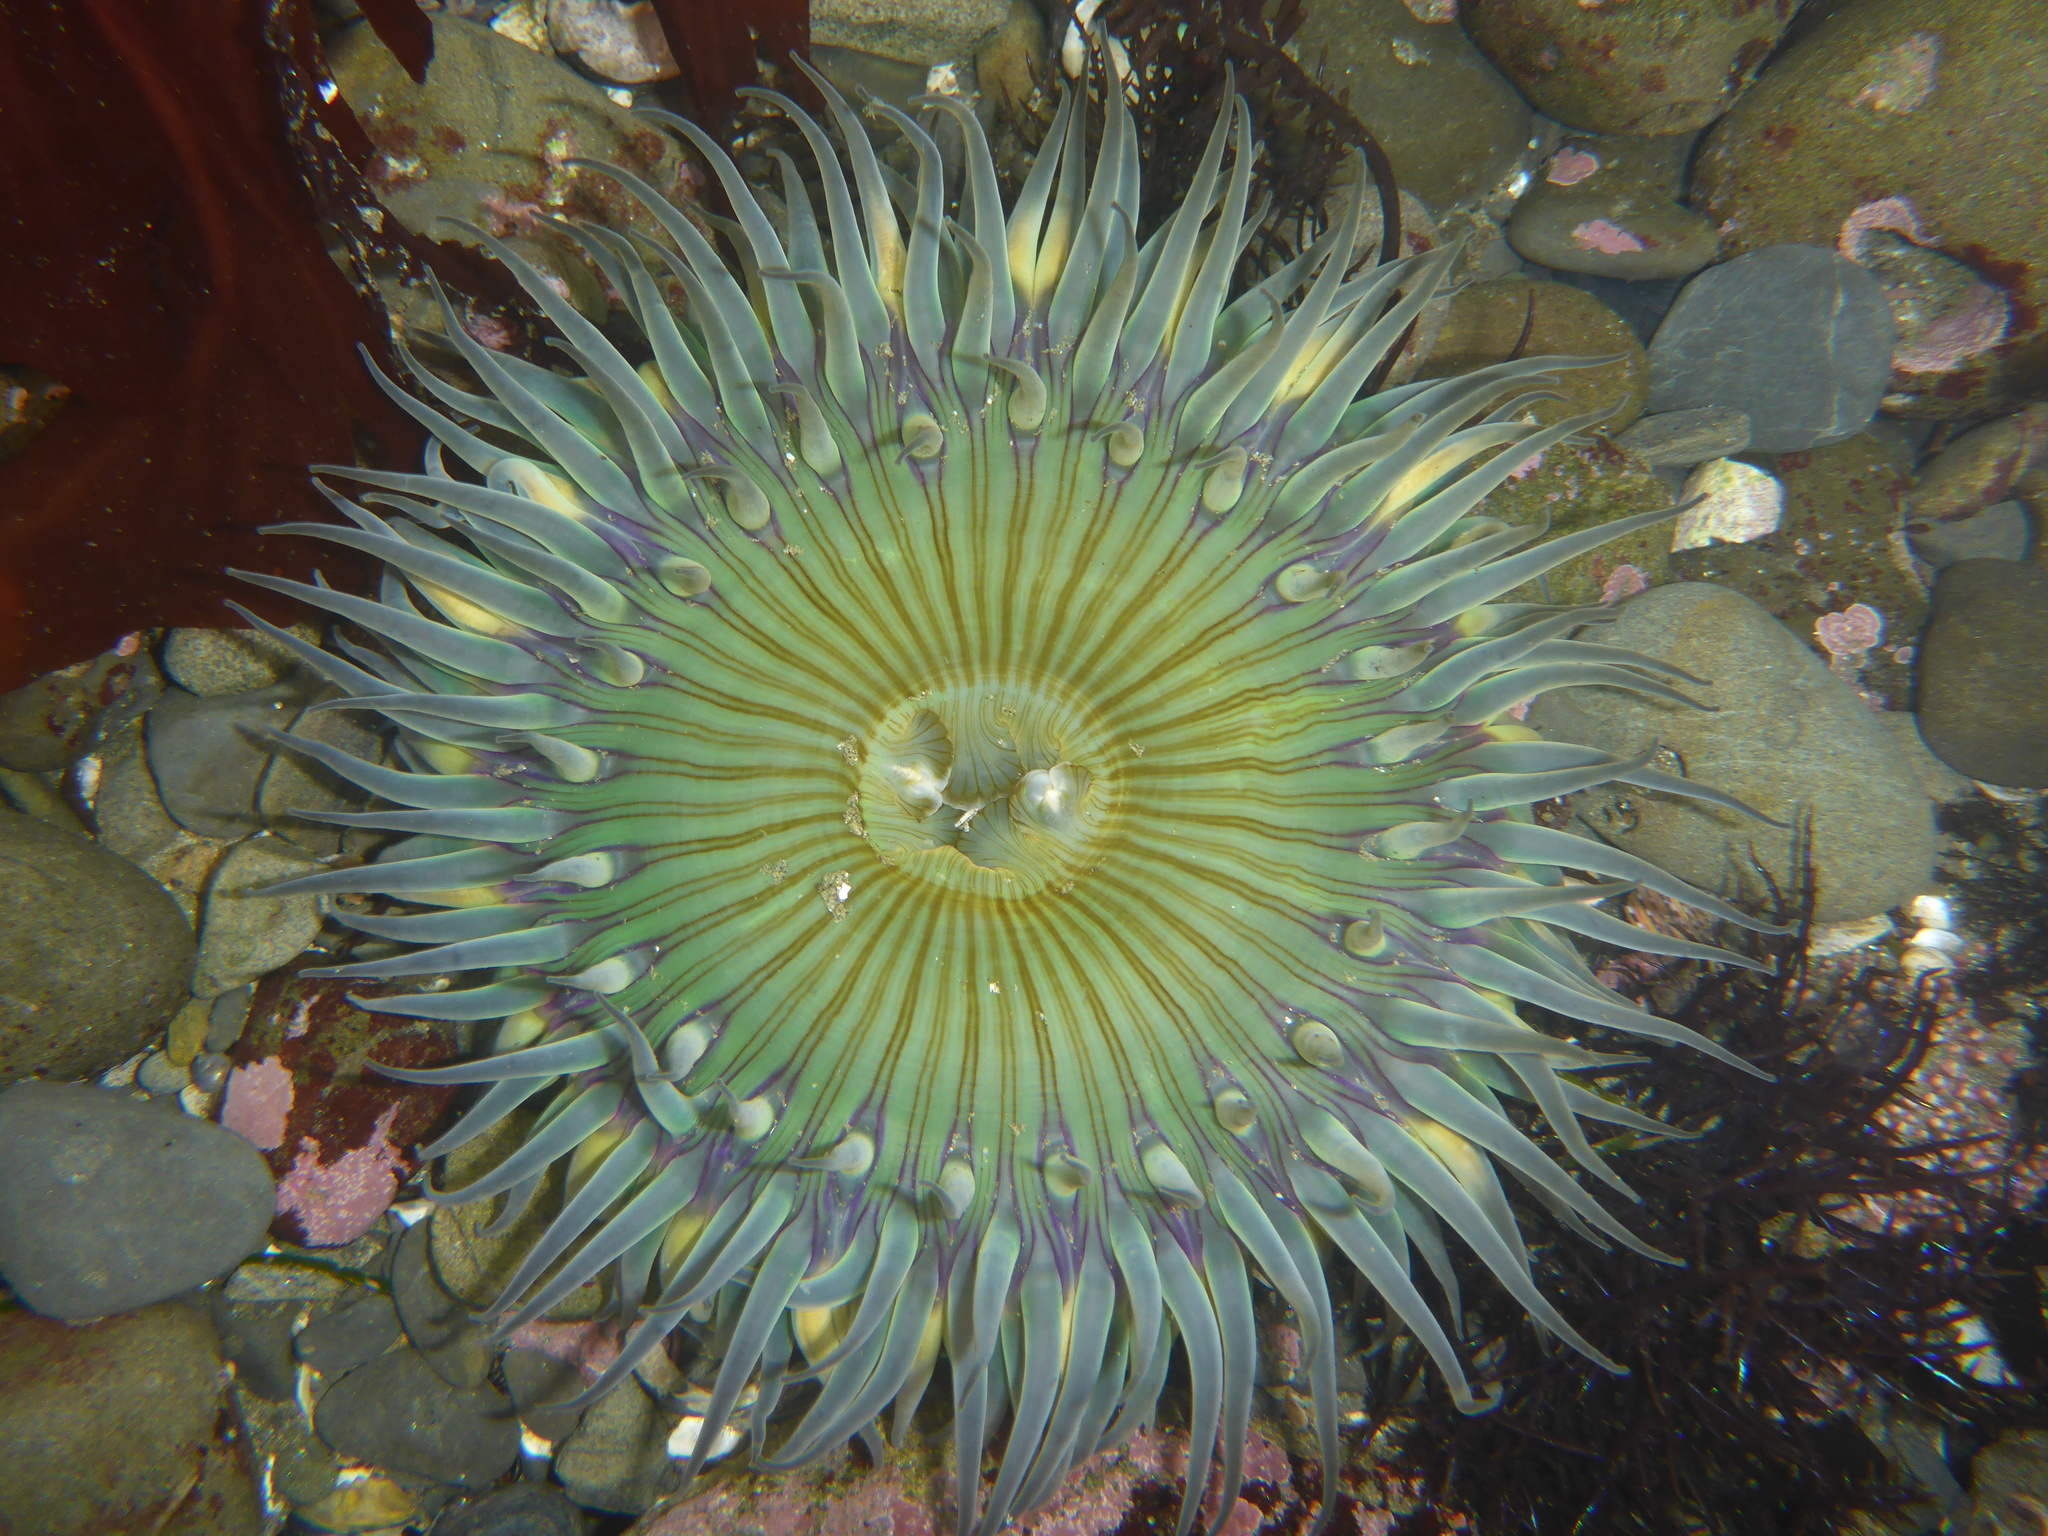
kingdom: Animalia
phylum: Cnidaria
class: Anthozoa
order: Actiniaria
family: Actiniidae
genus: Anthopleura
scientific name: Anthopleura sola
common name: Sun anemone
